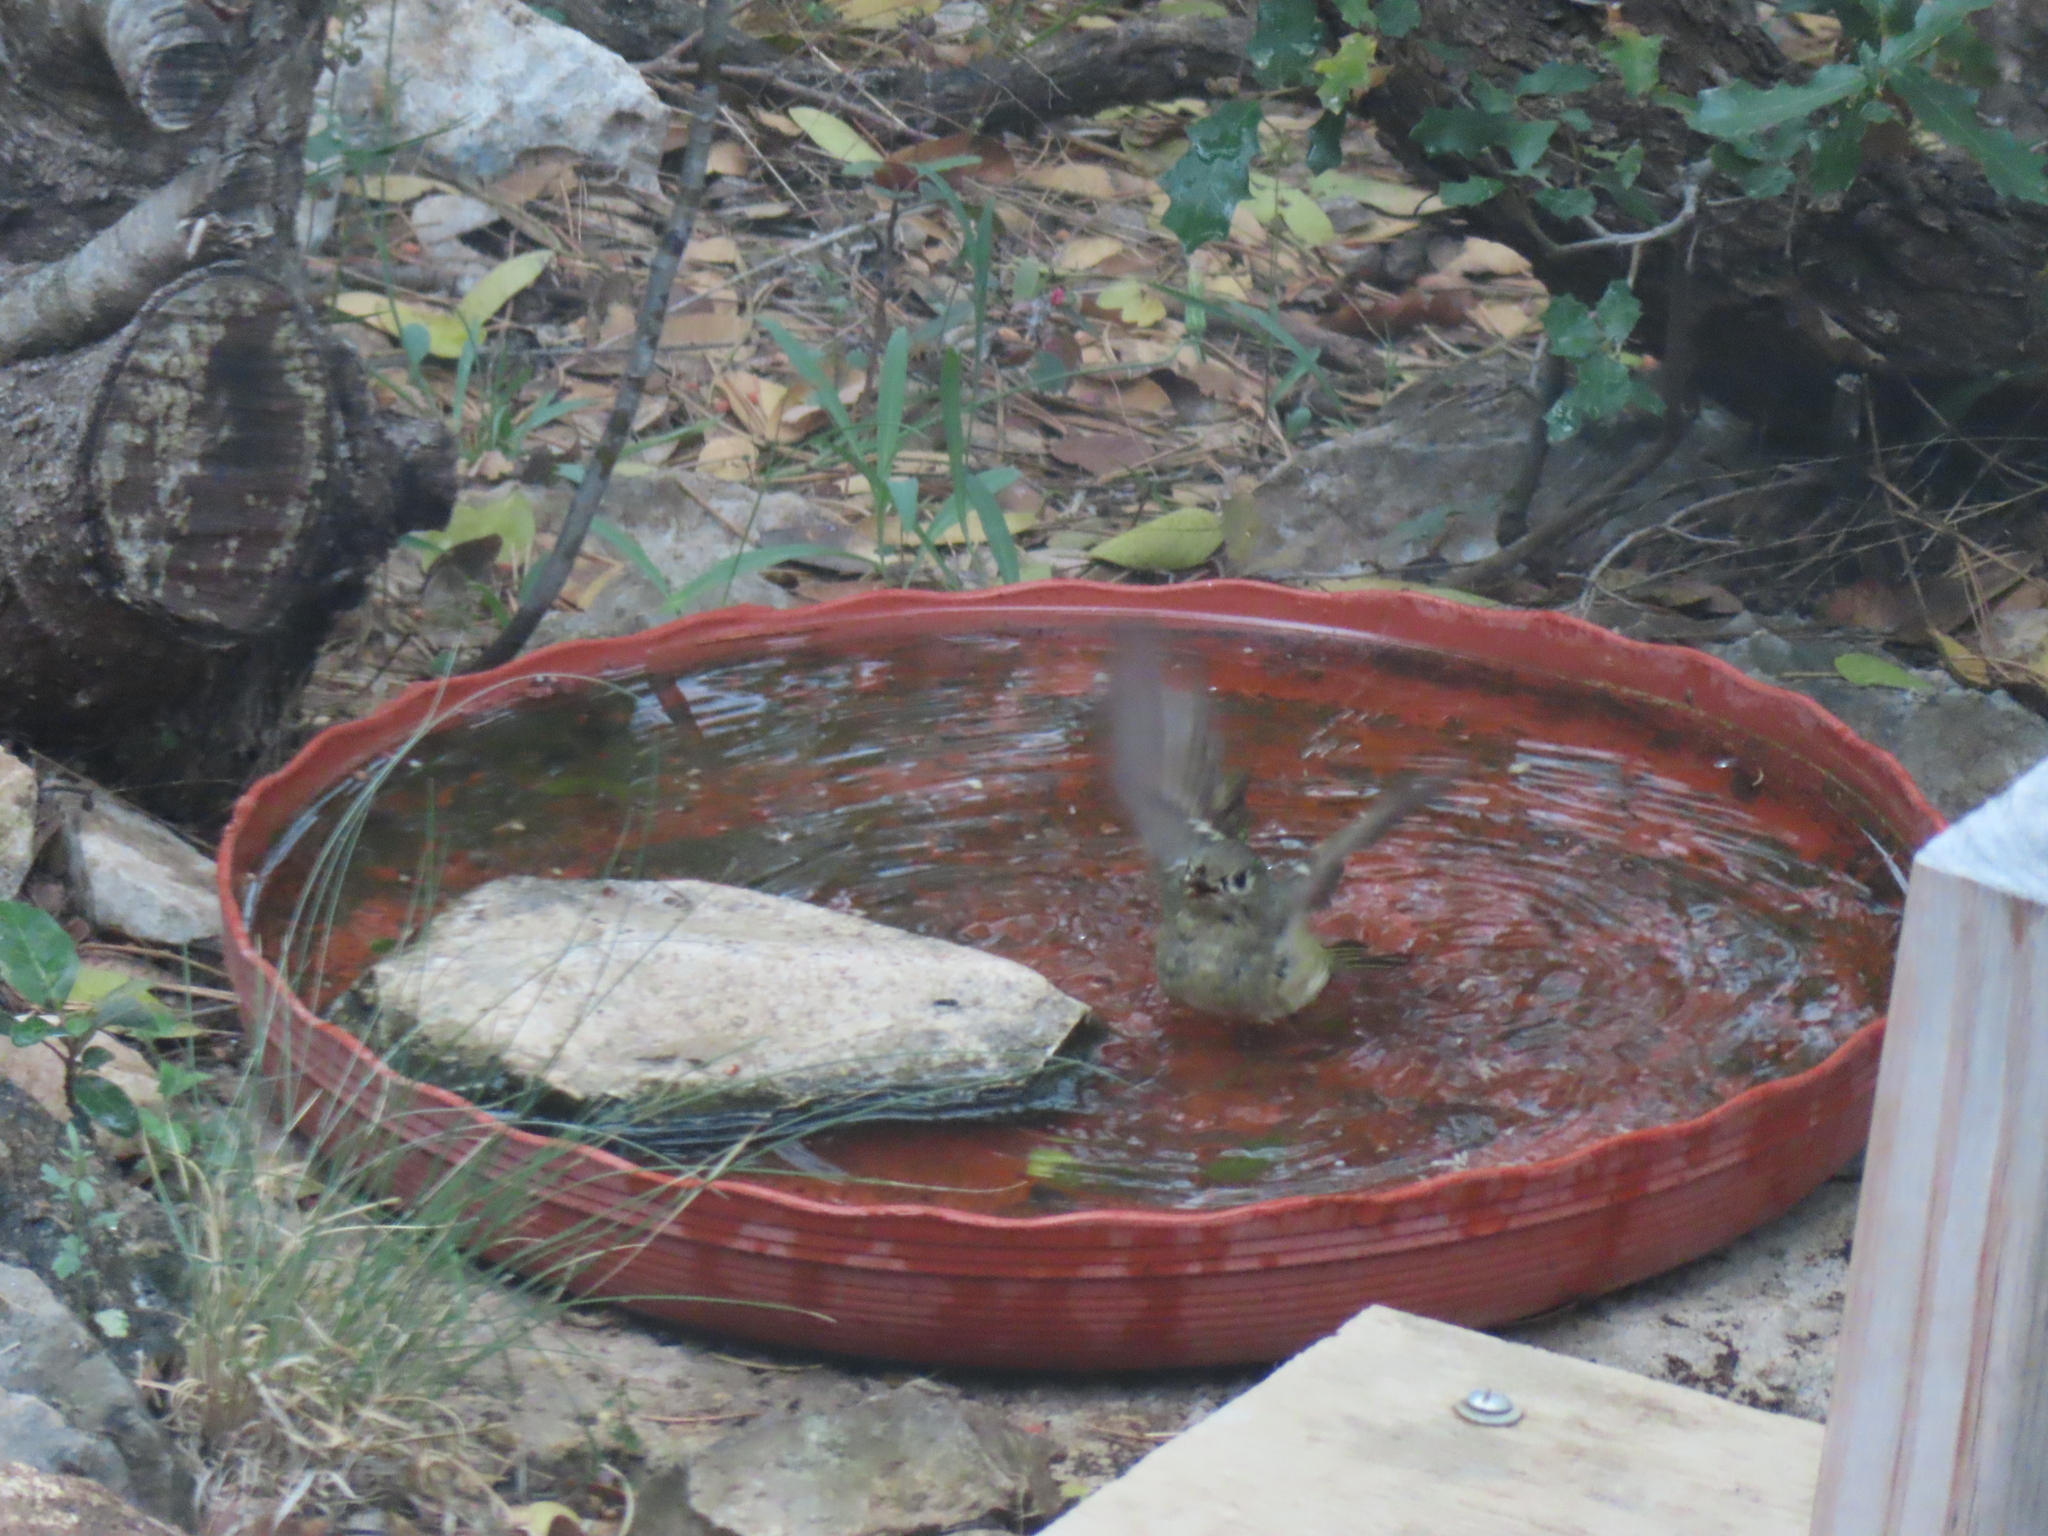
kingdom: Animalia
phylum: Chordata
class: Aves
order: Passeriformes
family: Regulidae
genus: Regulus
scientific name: Regulus calendula
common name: Ruby-crowned kinglet
